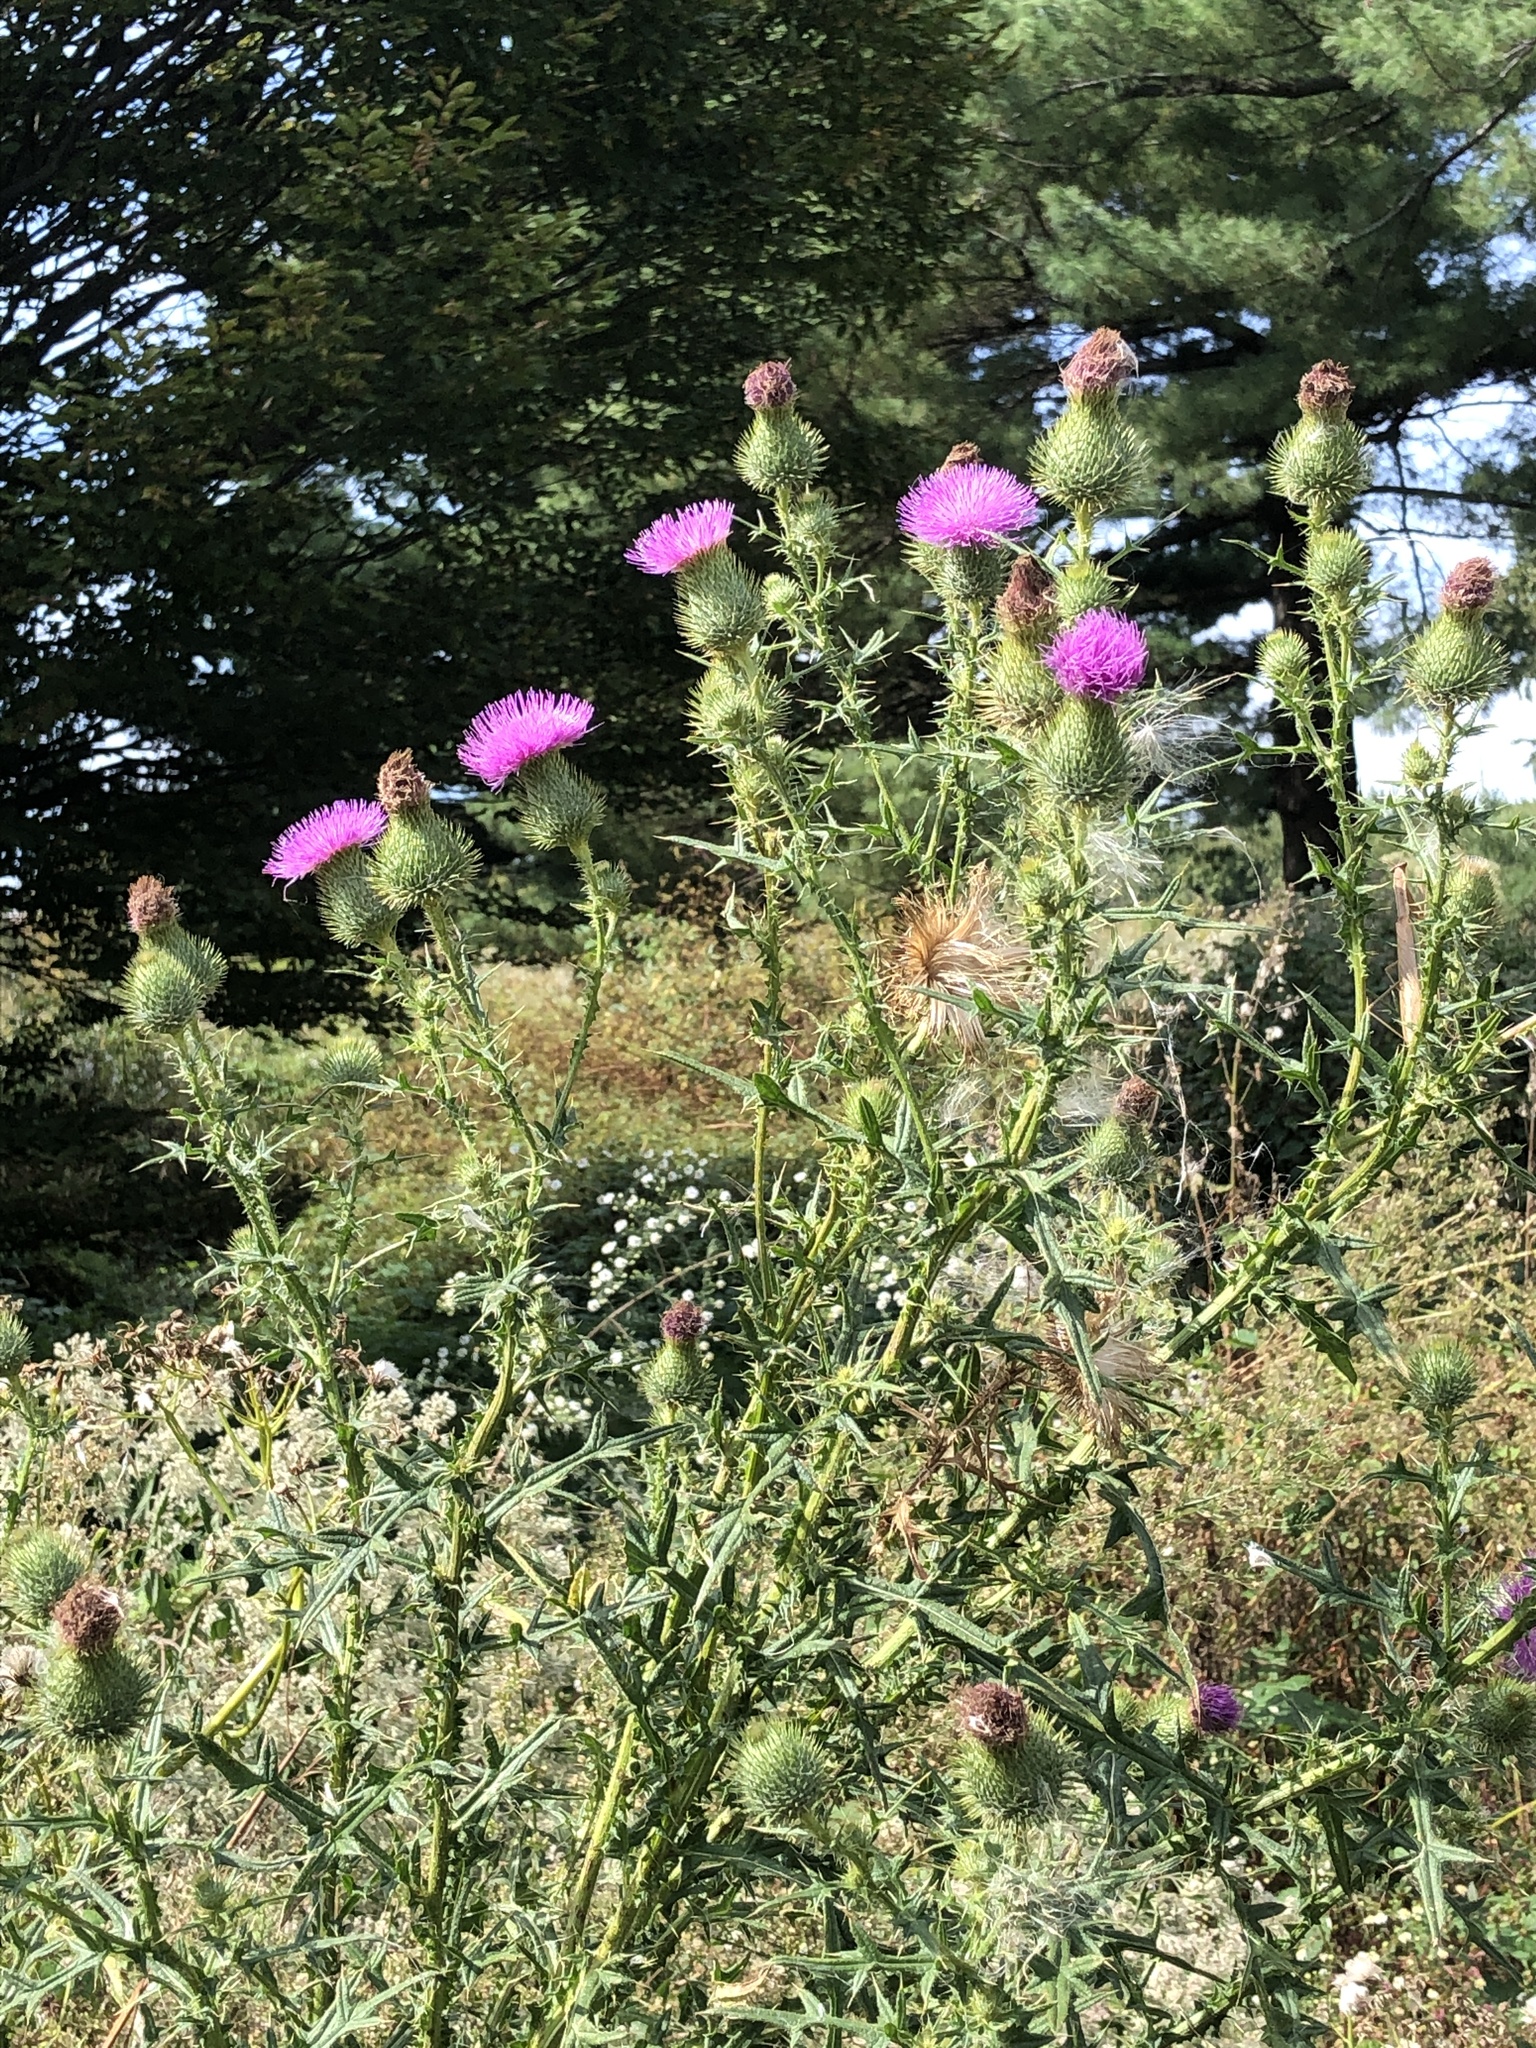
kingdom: Plantae
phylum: Tracheophyta
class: Magnoliopsida
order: Asterales
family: Asteraceae
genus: Cirsium
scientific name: Cirsium vulgare
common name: Bull thistle
